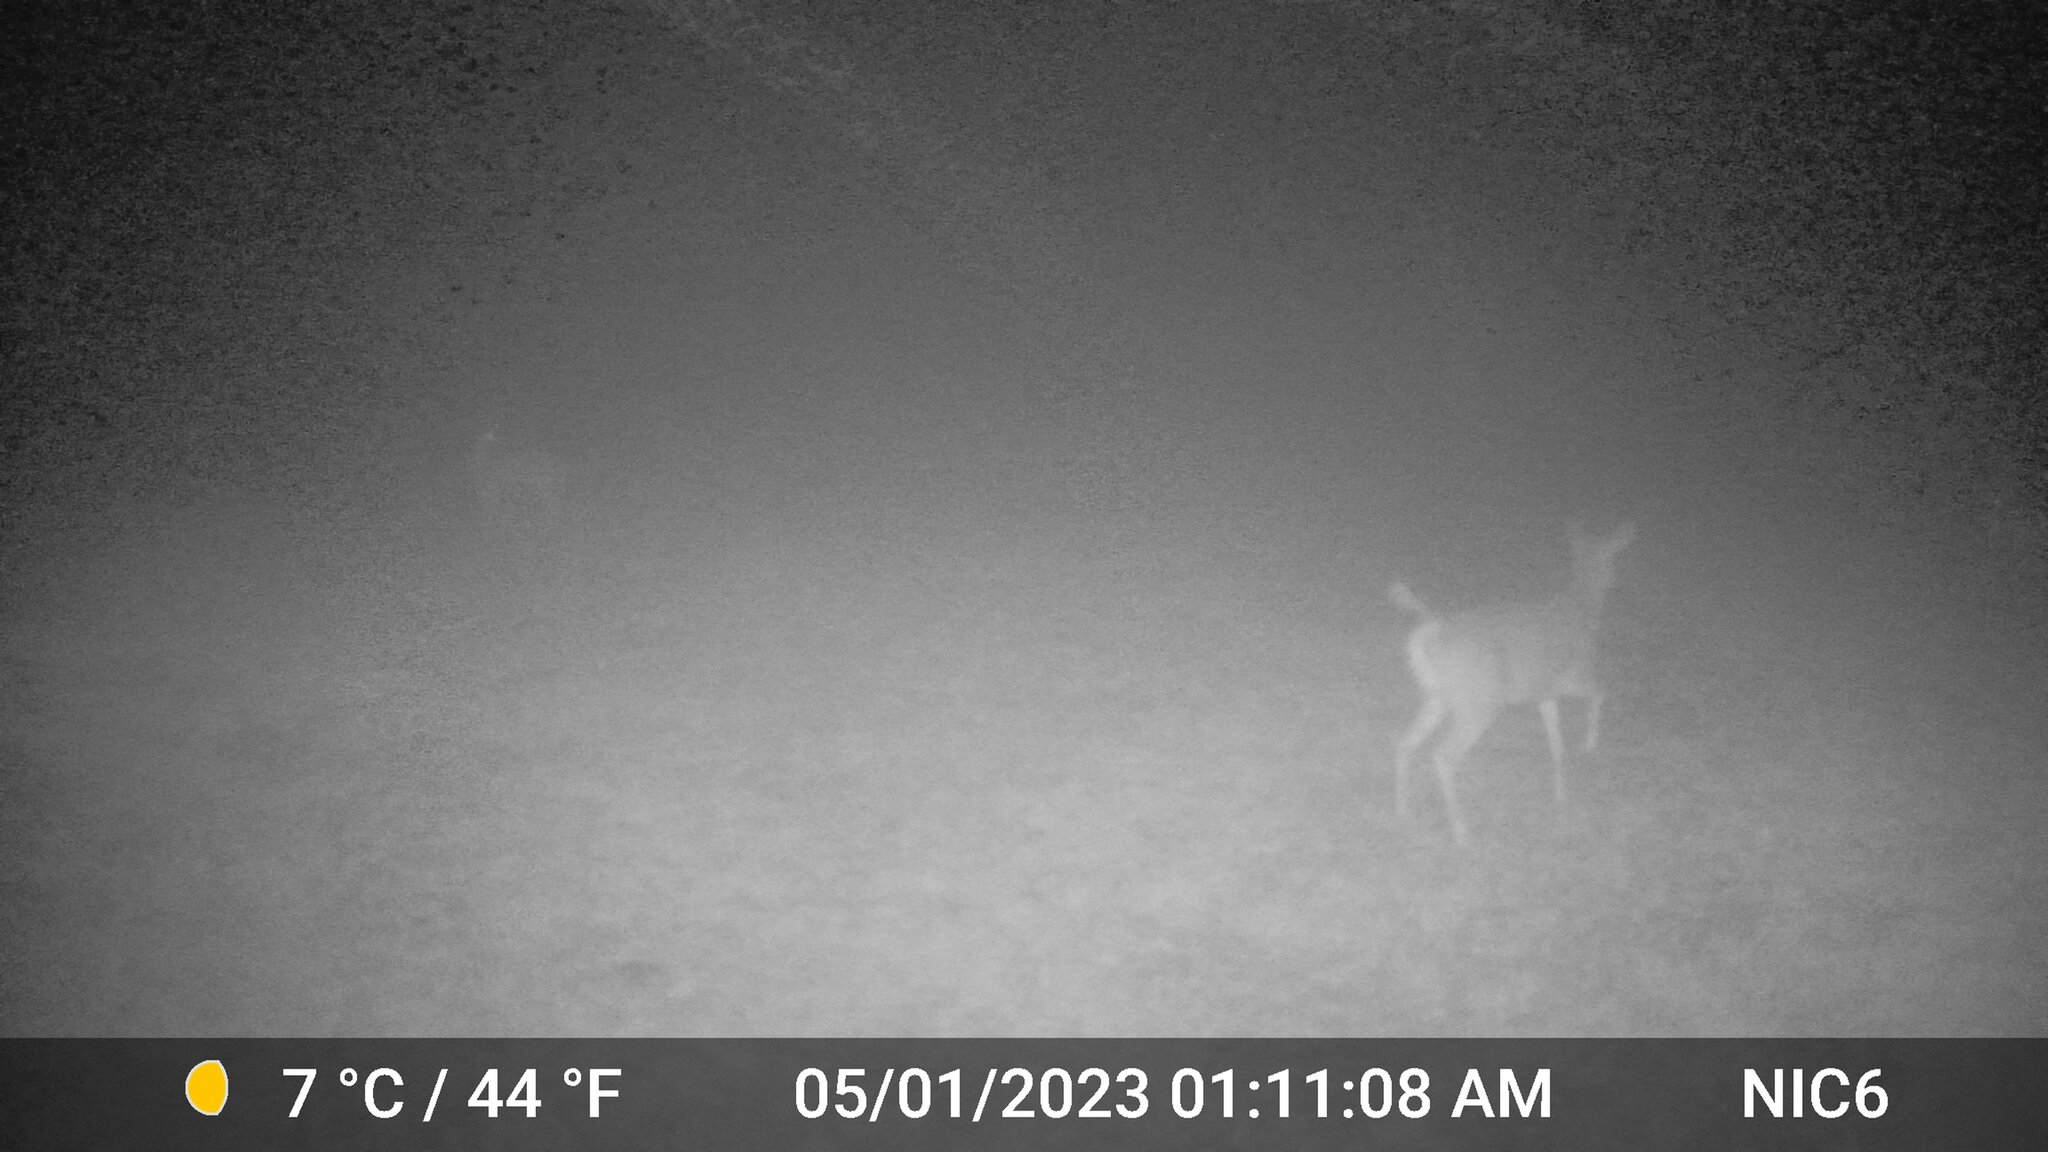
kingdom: Animalia
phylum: Chordata
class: Mammalia
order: Artiodactyla
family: Cervidae
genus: Odocoileus
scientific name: Odocoileus virginianus
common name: White-tailed deer
